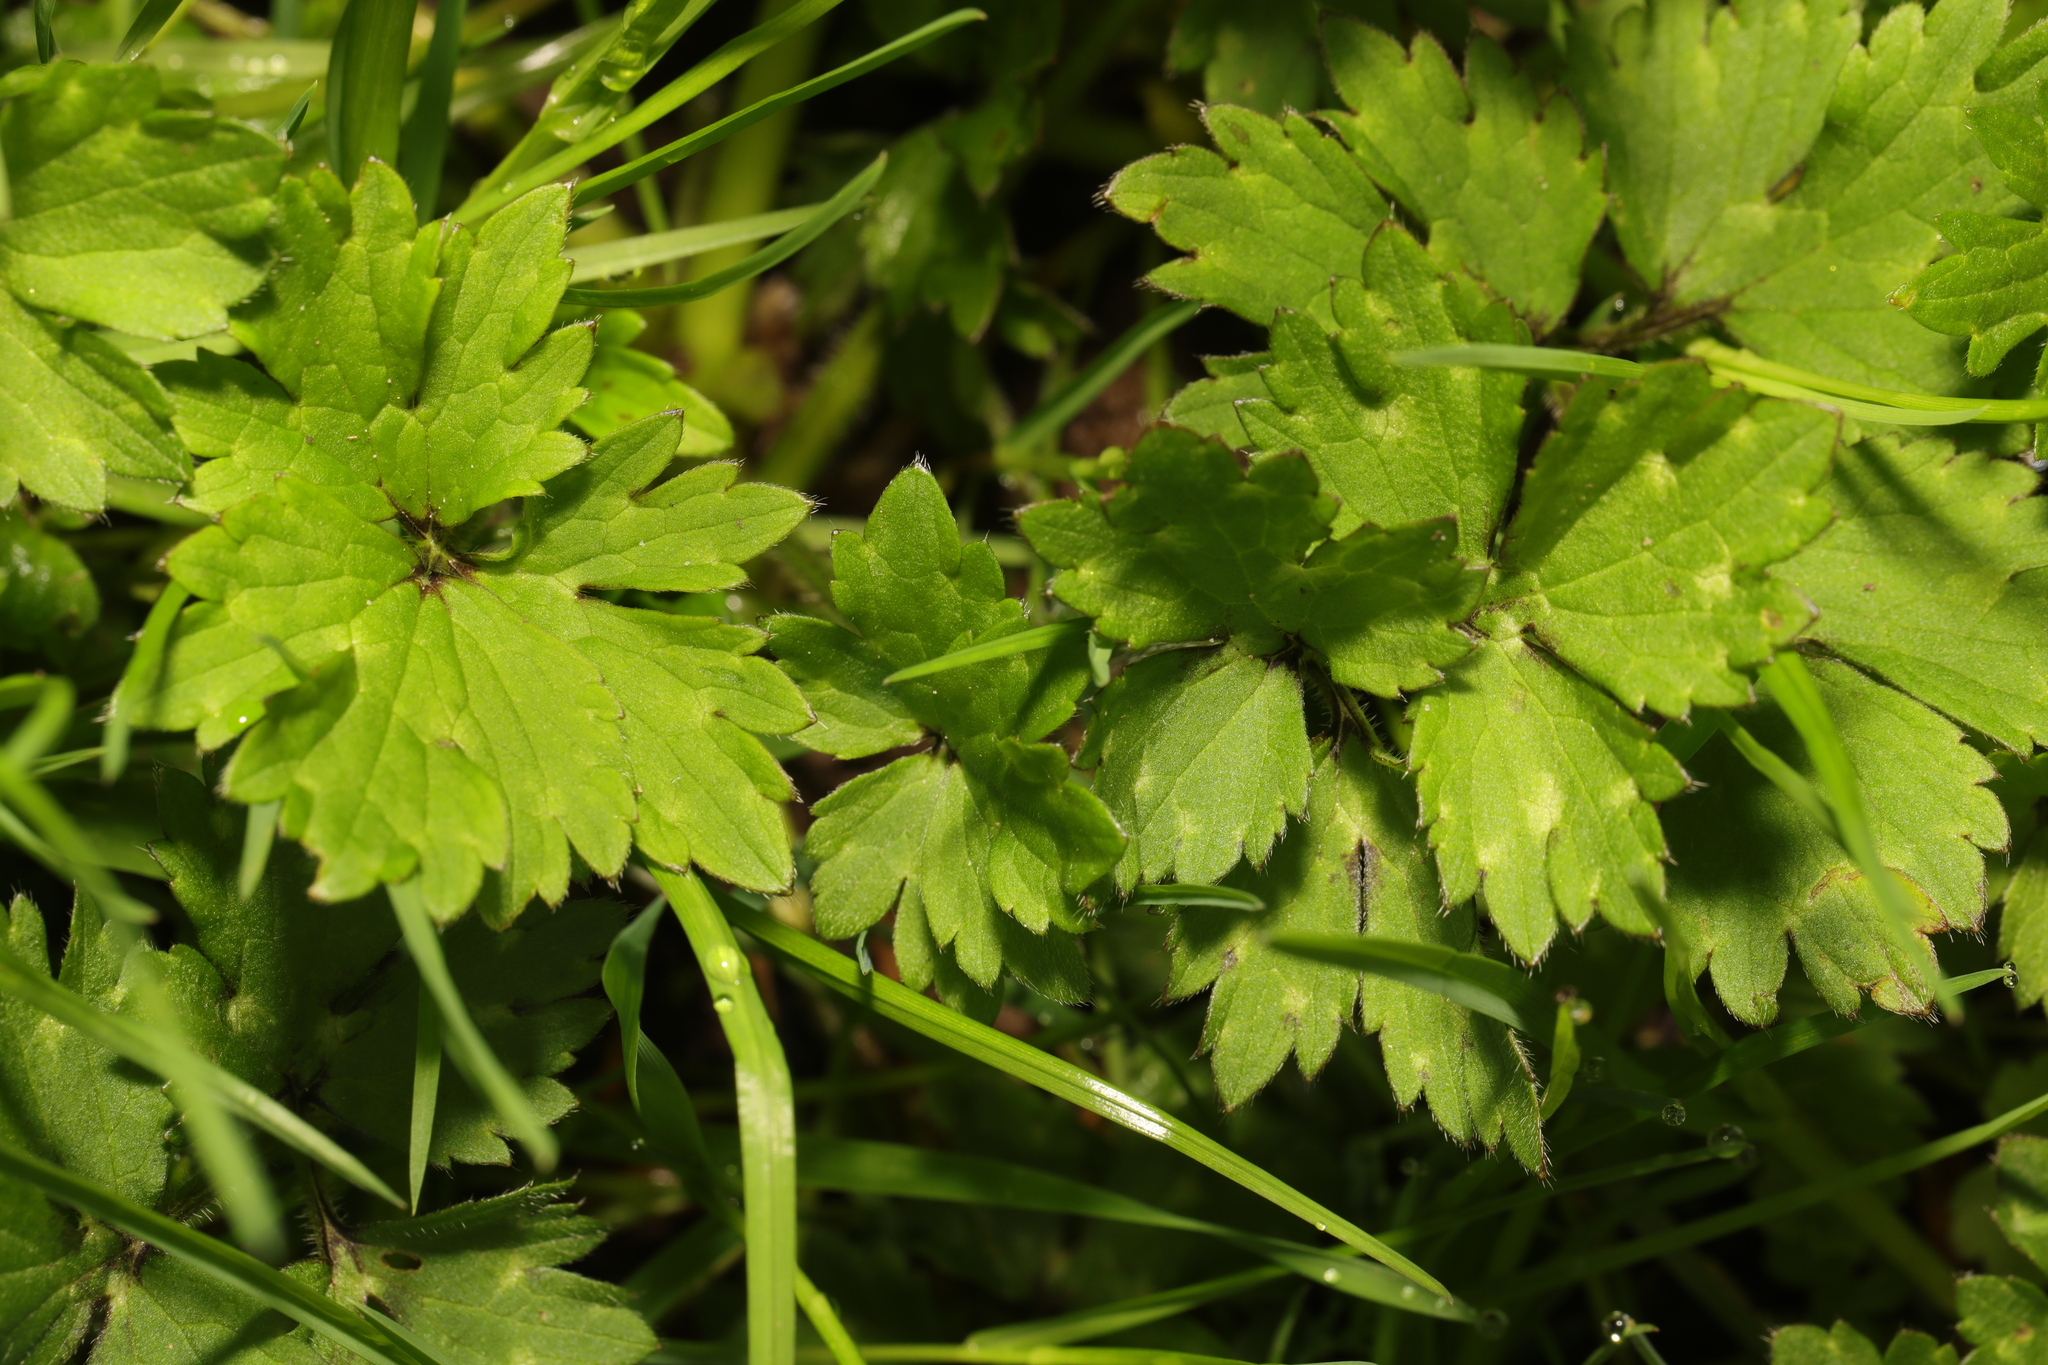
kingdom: Plantae
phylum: Tracheophyta
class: Magnoliopsida
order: Ranunculales
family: Ranunculaceae
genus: Ranunculus
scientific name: Ranunculus repens
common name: Creeping buttercup
